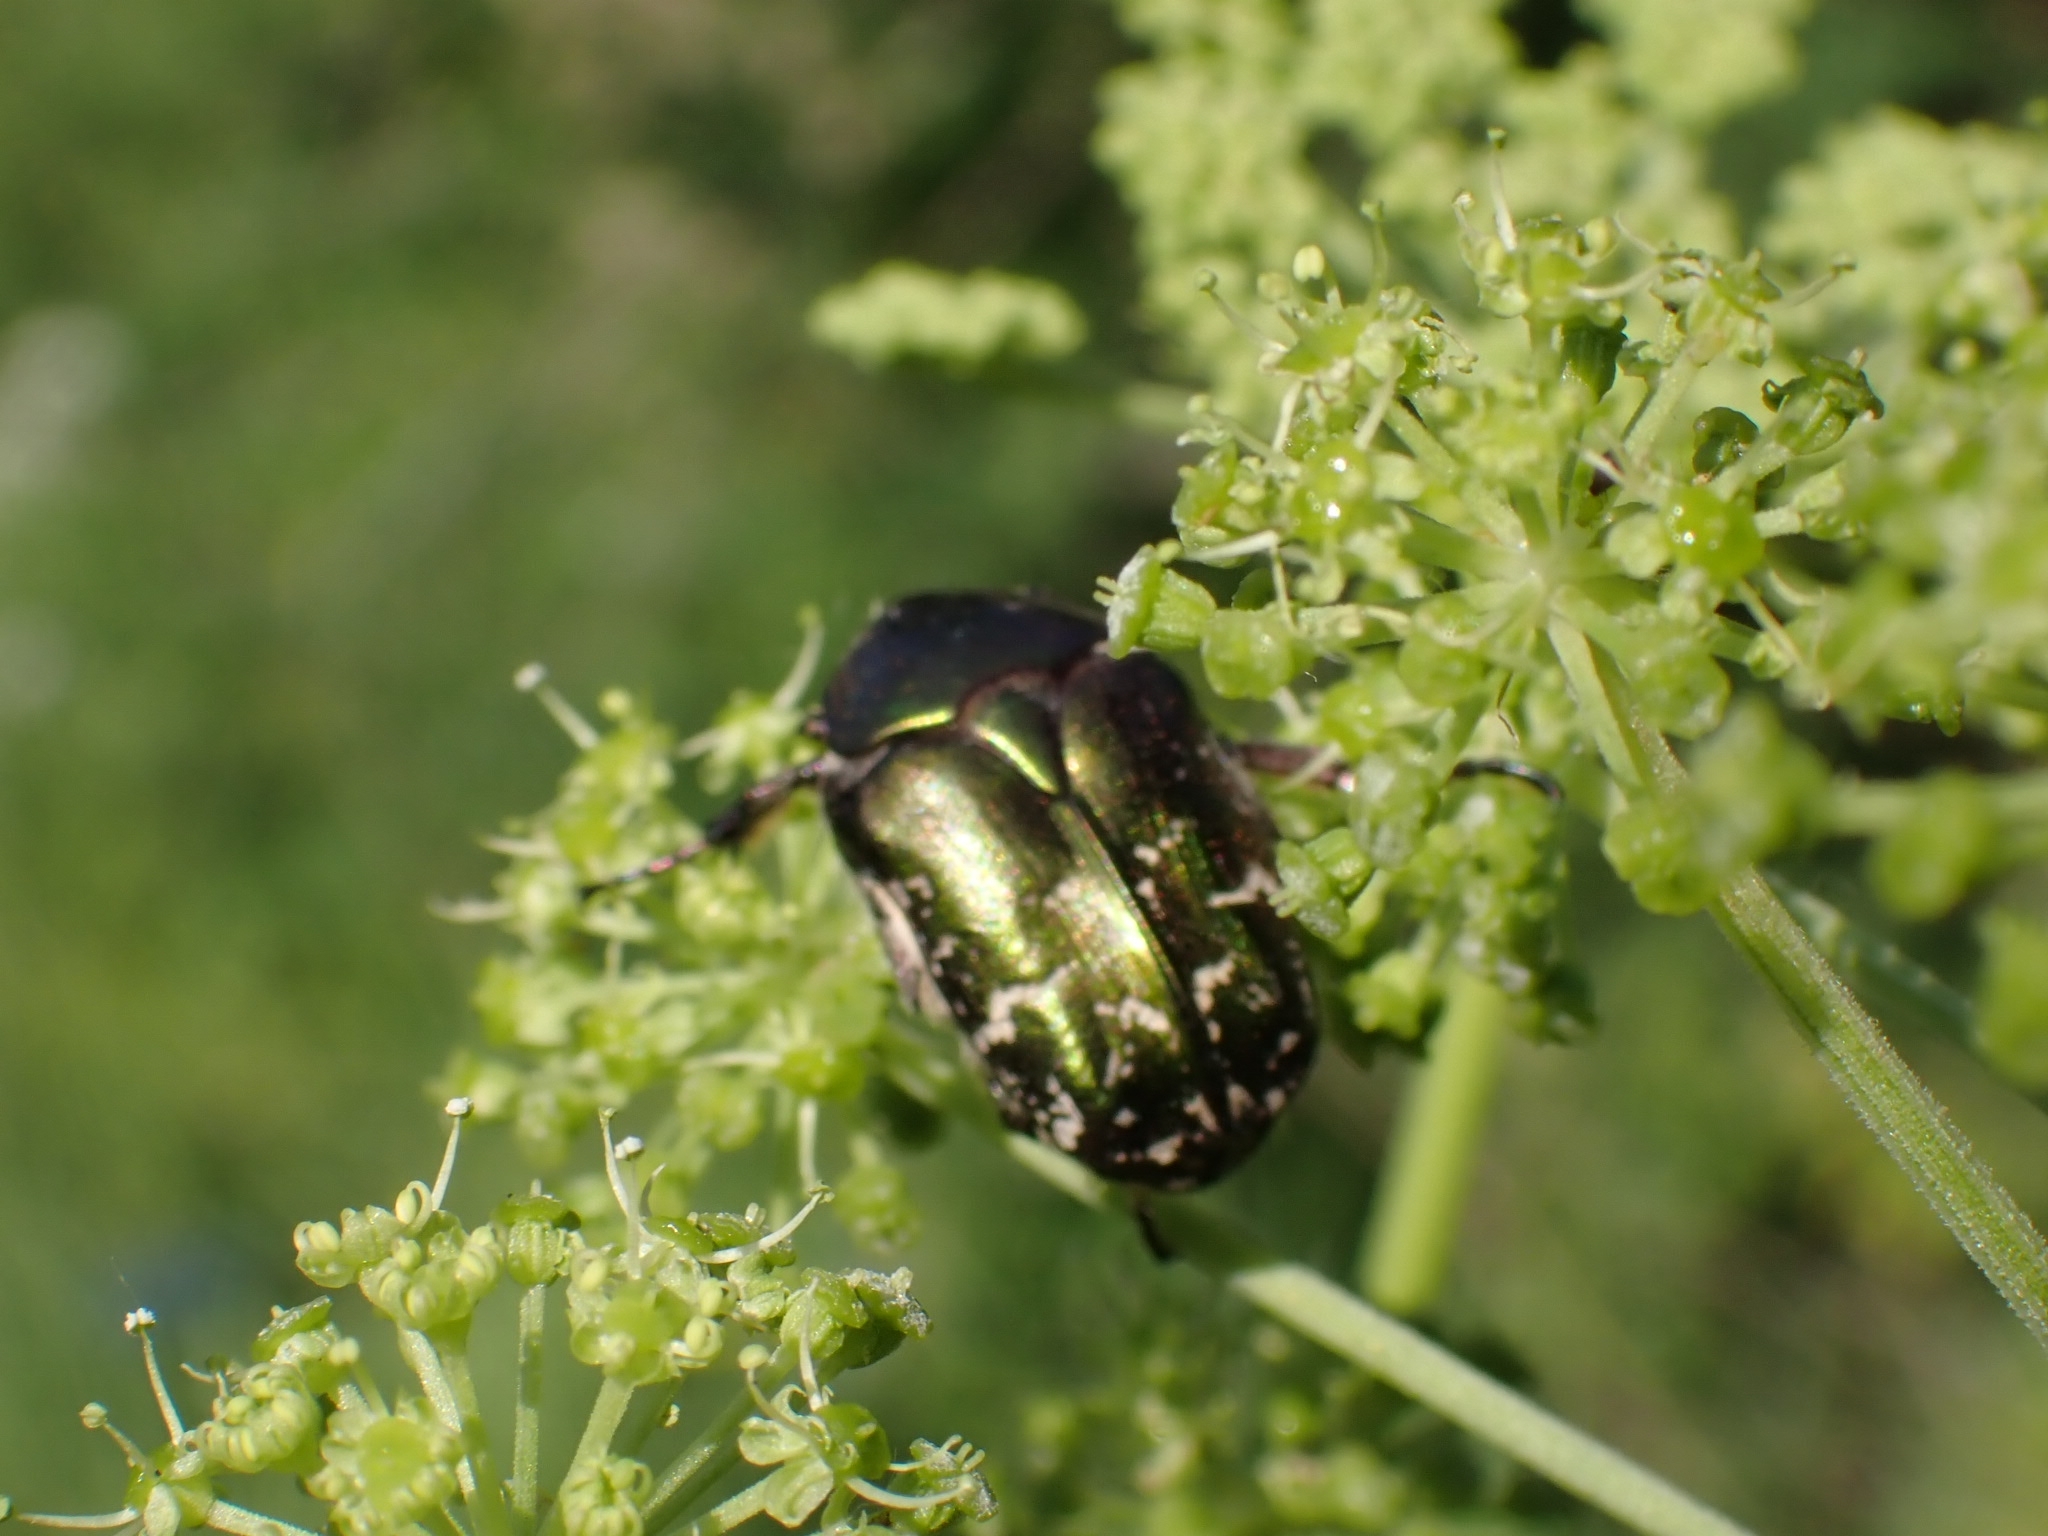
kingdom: Animalia
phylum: Arthropoda
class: Insecta
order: Coleoptera
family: Scarabaeidae
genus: Protaetia
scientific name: Protaetia cuprea
